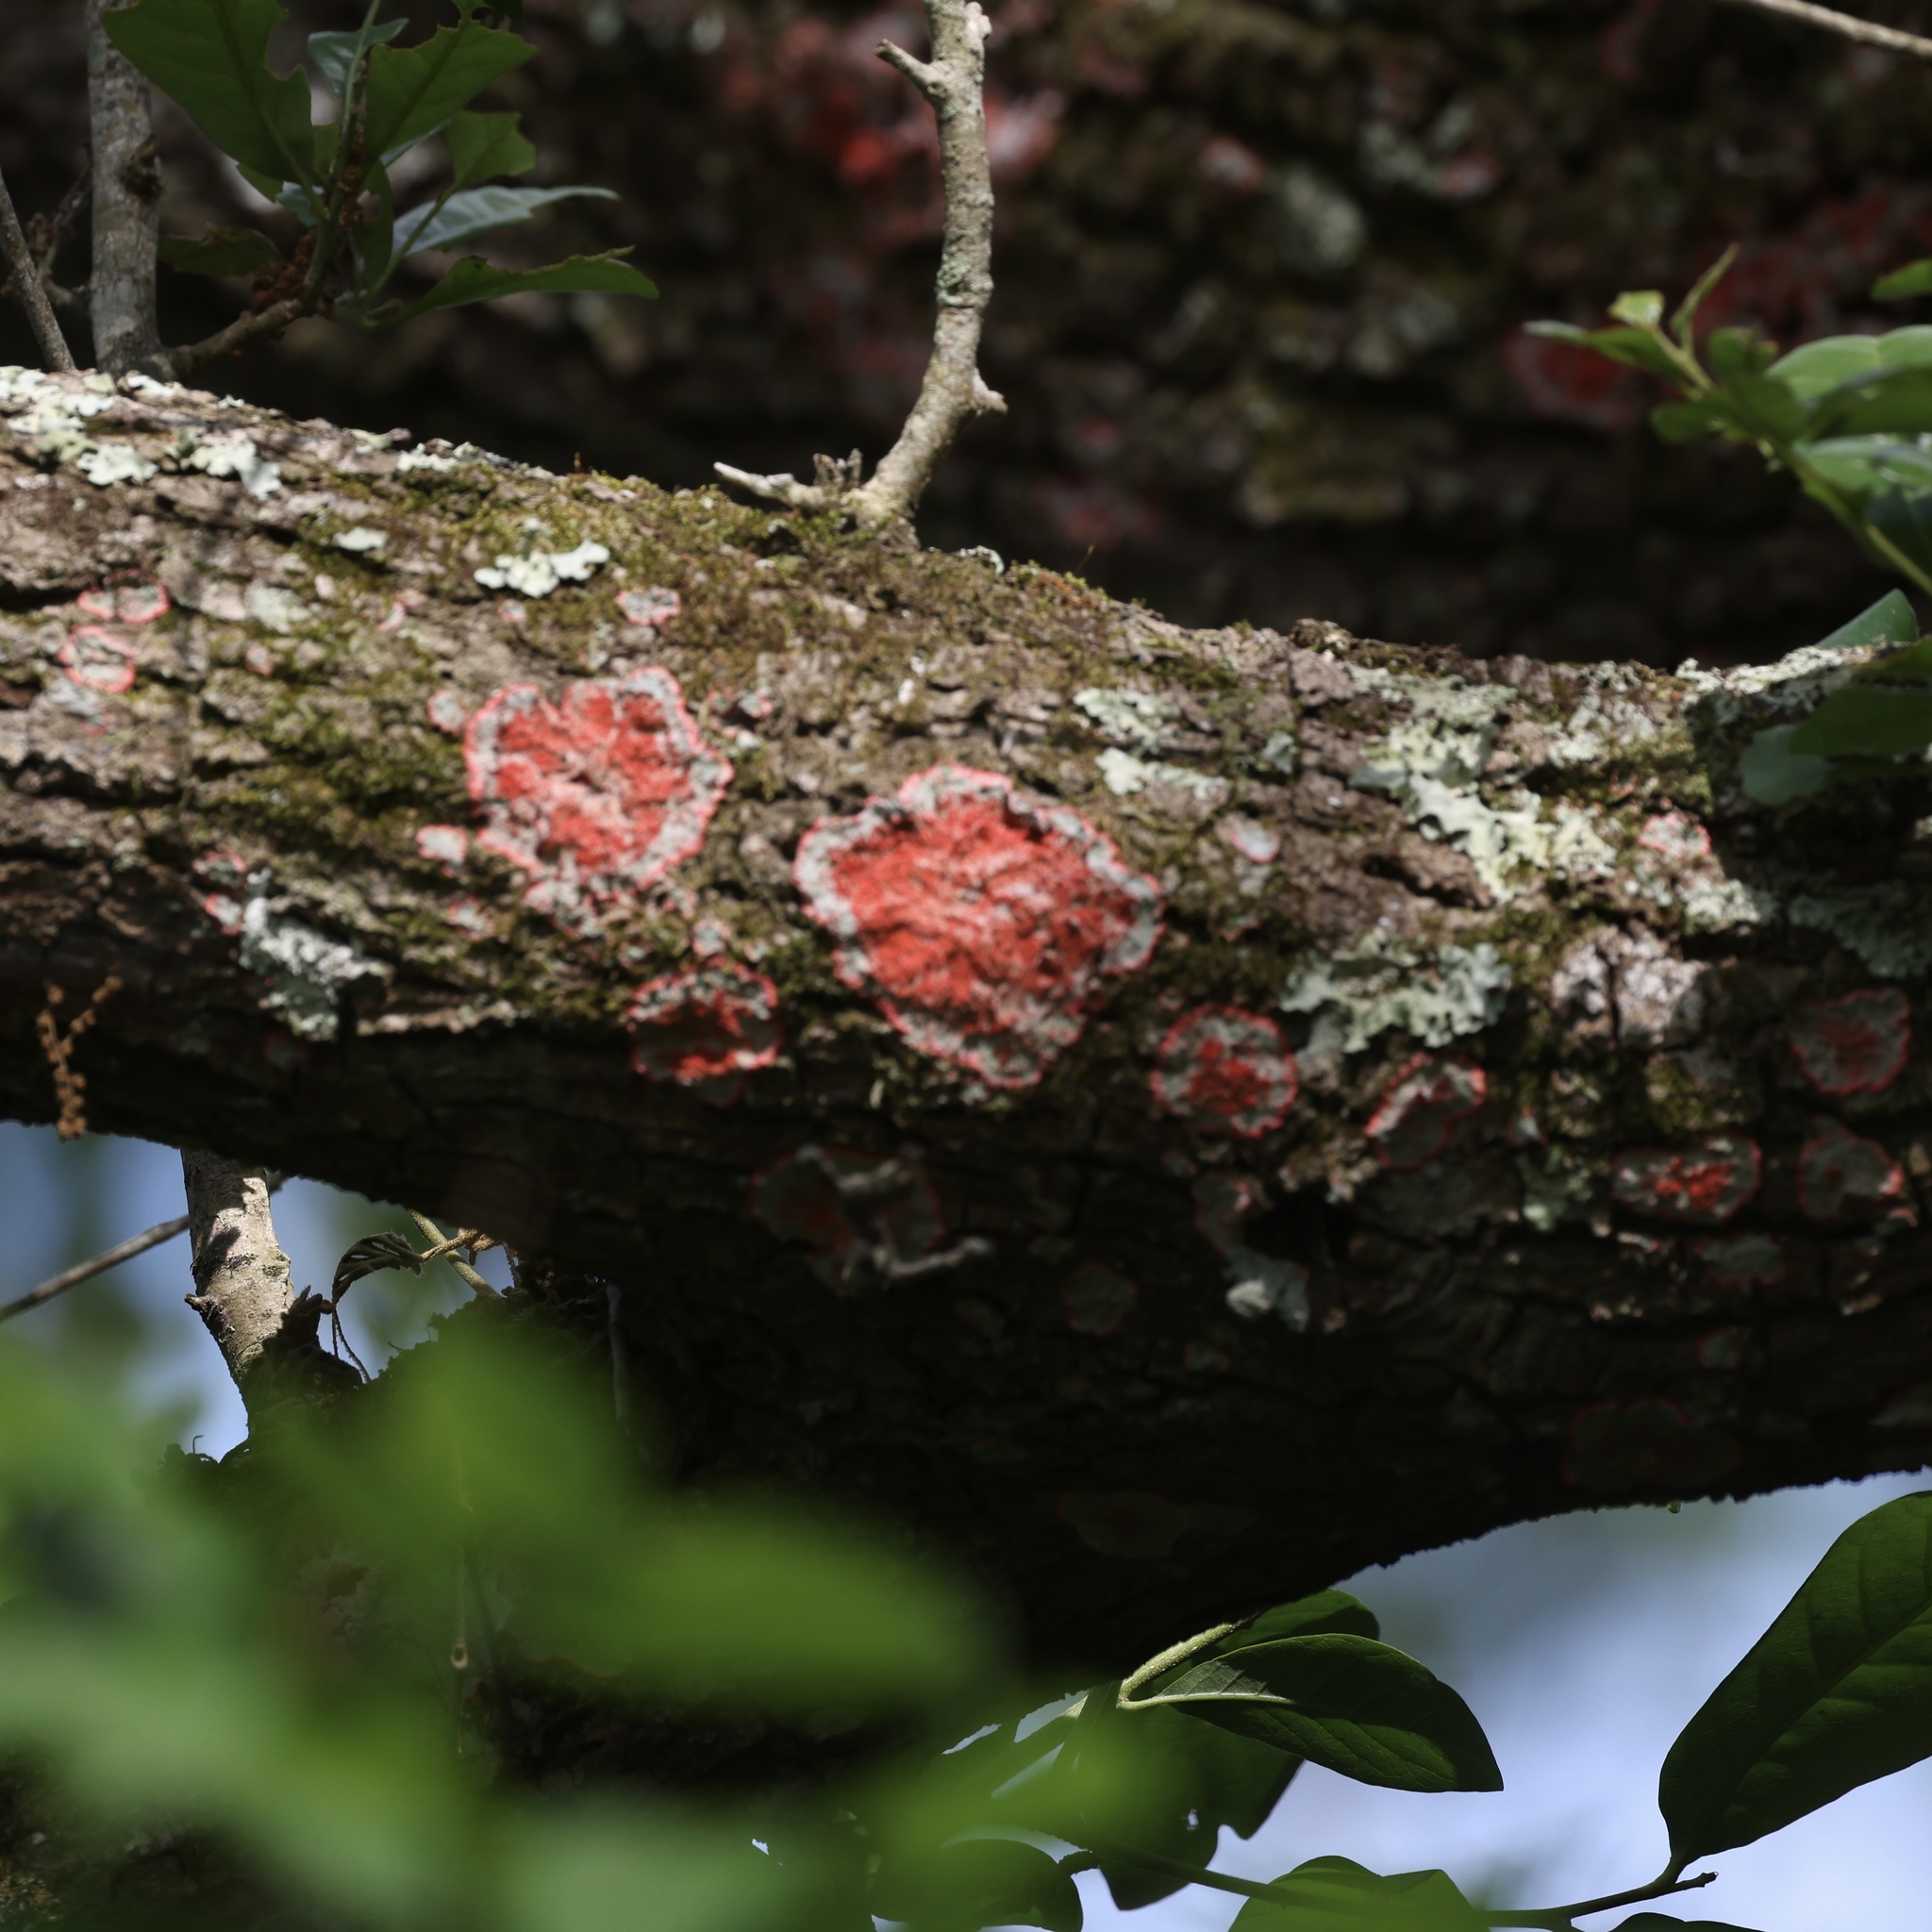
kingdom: Fungi
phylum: Ascomycota
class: Arthoniomycetes
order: Arthoniales
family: Arthoniaceae
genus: Herpothallon
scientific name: Herpothallon rubrocinctum
